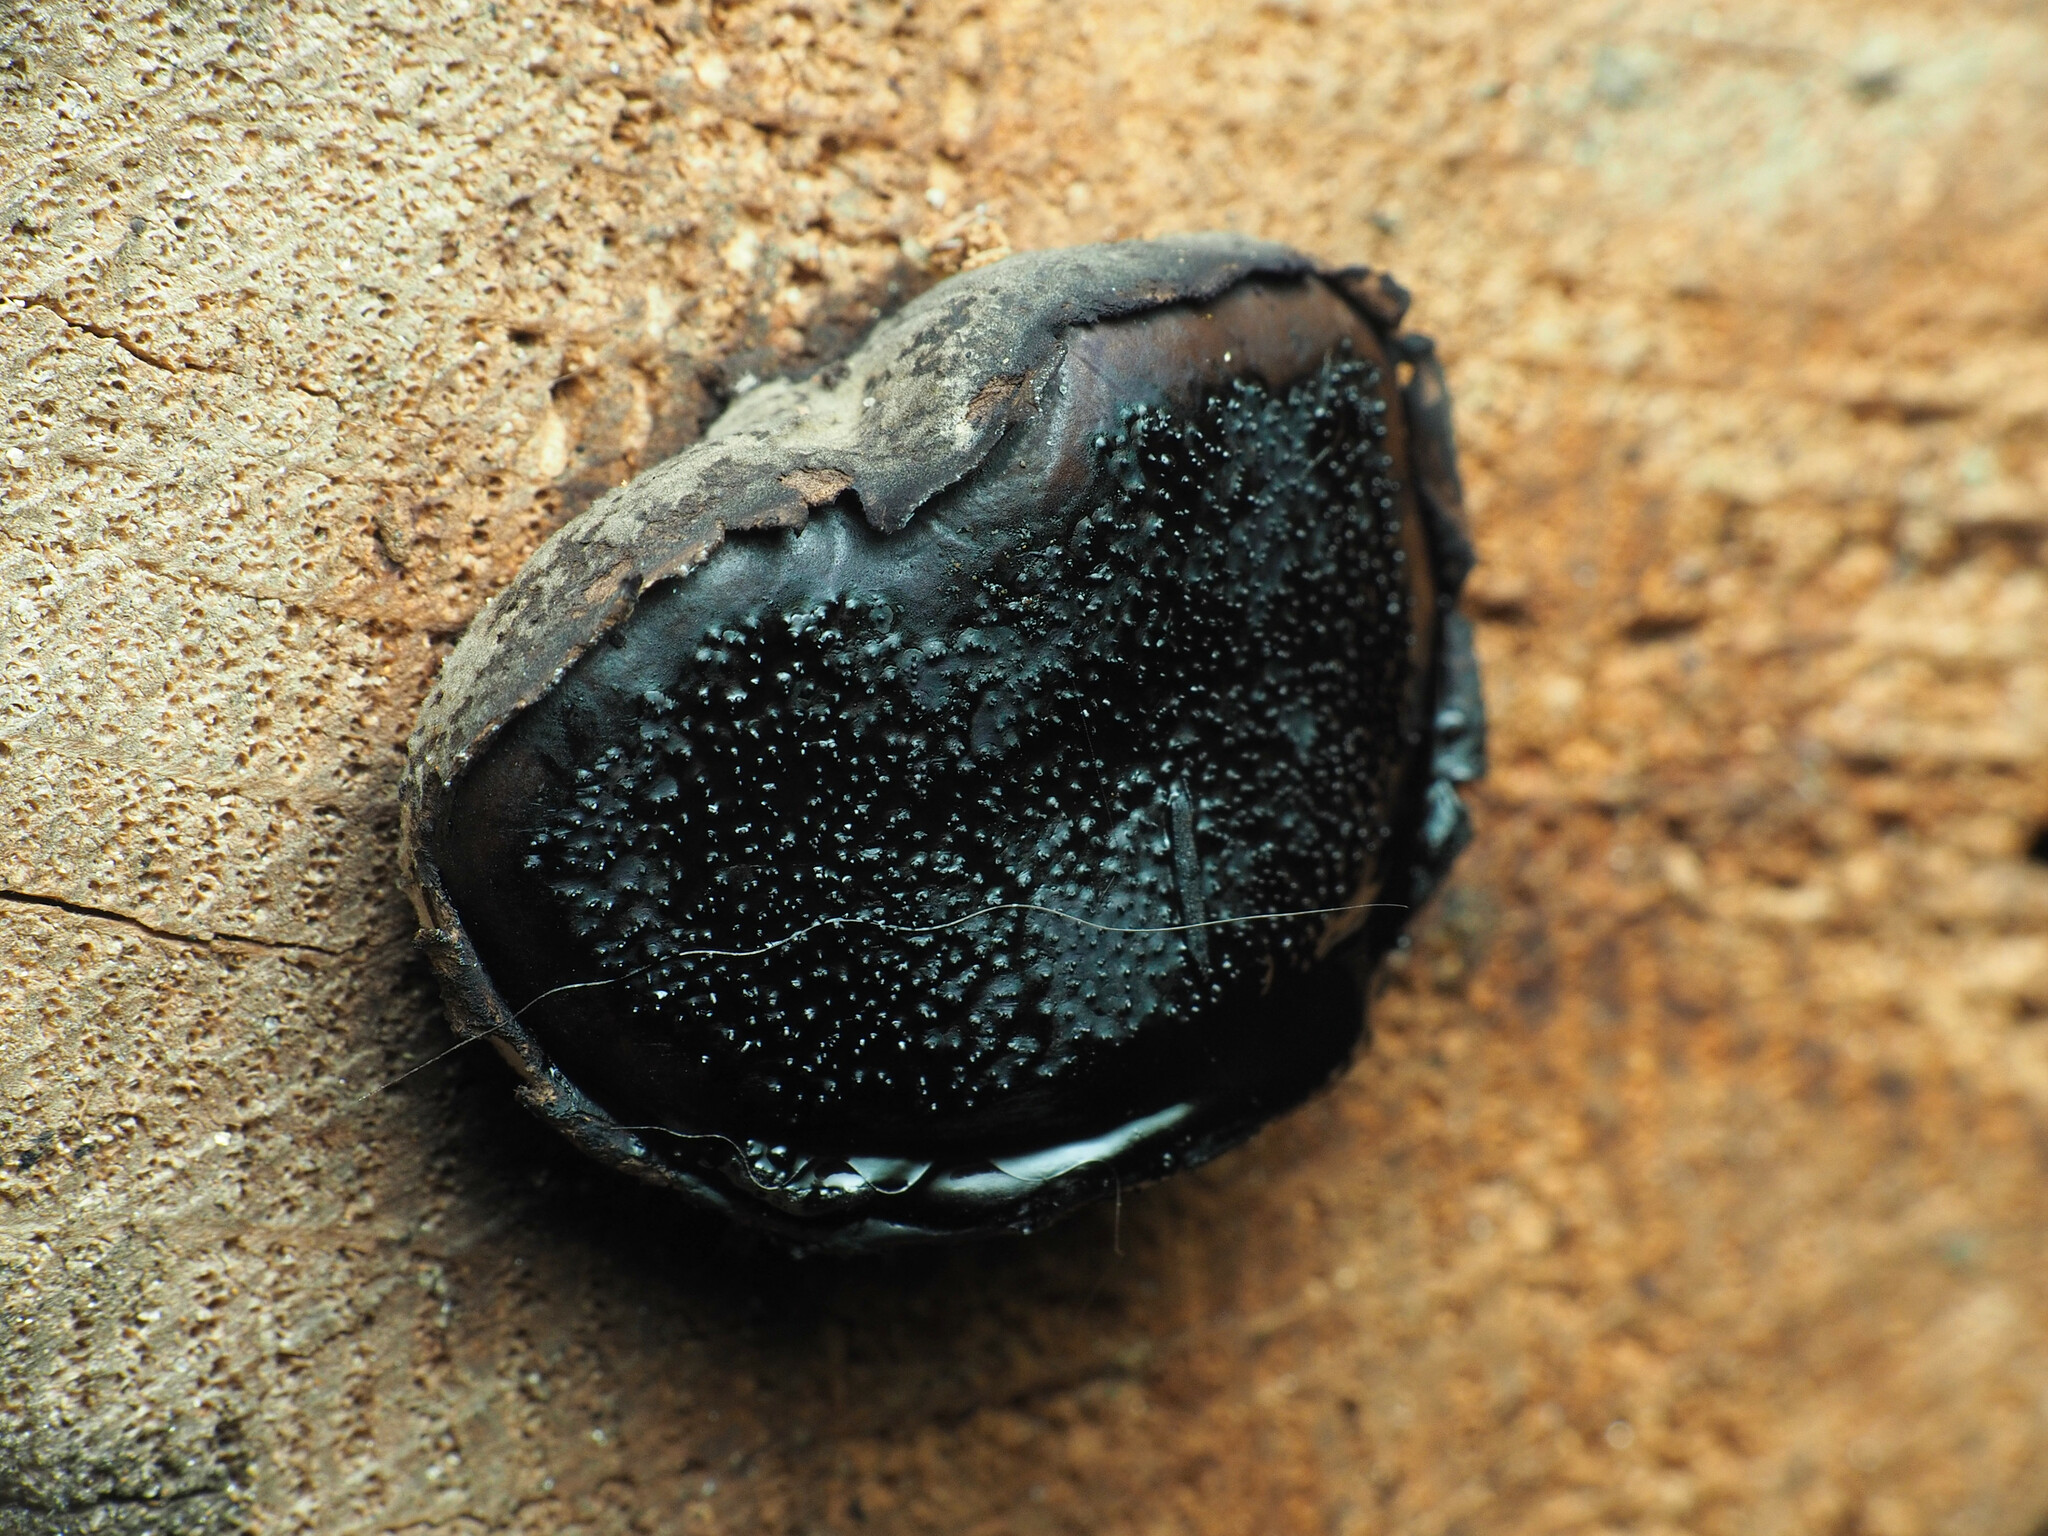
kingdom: Fungi
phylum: Ascomycota
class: Sordariomycetes
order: Boliniales
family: Boliniaceae
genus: Camarops
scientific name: Camarops petersii
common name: Dog's nose fungus
